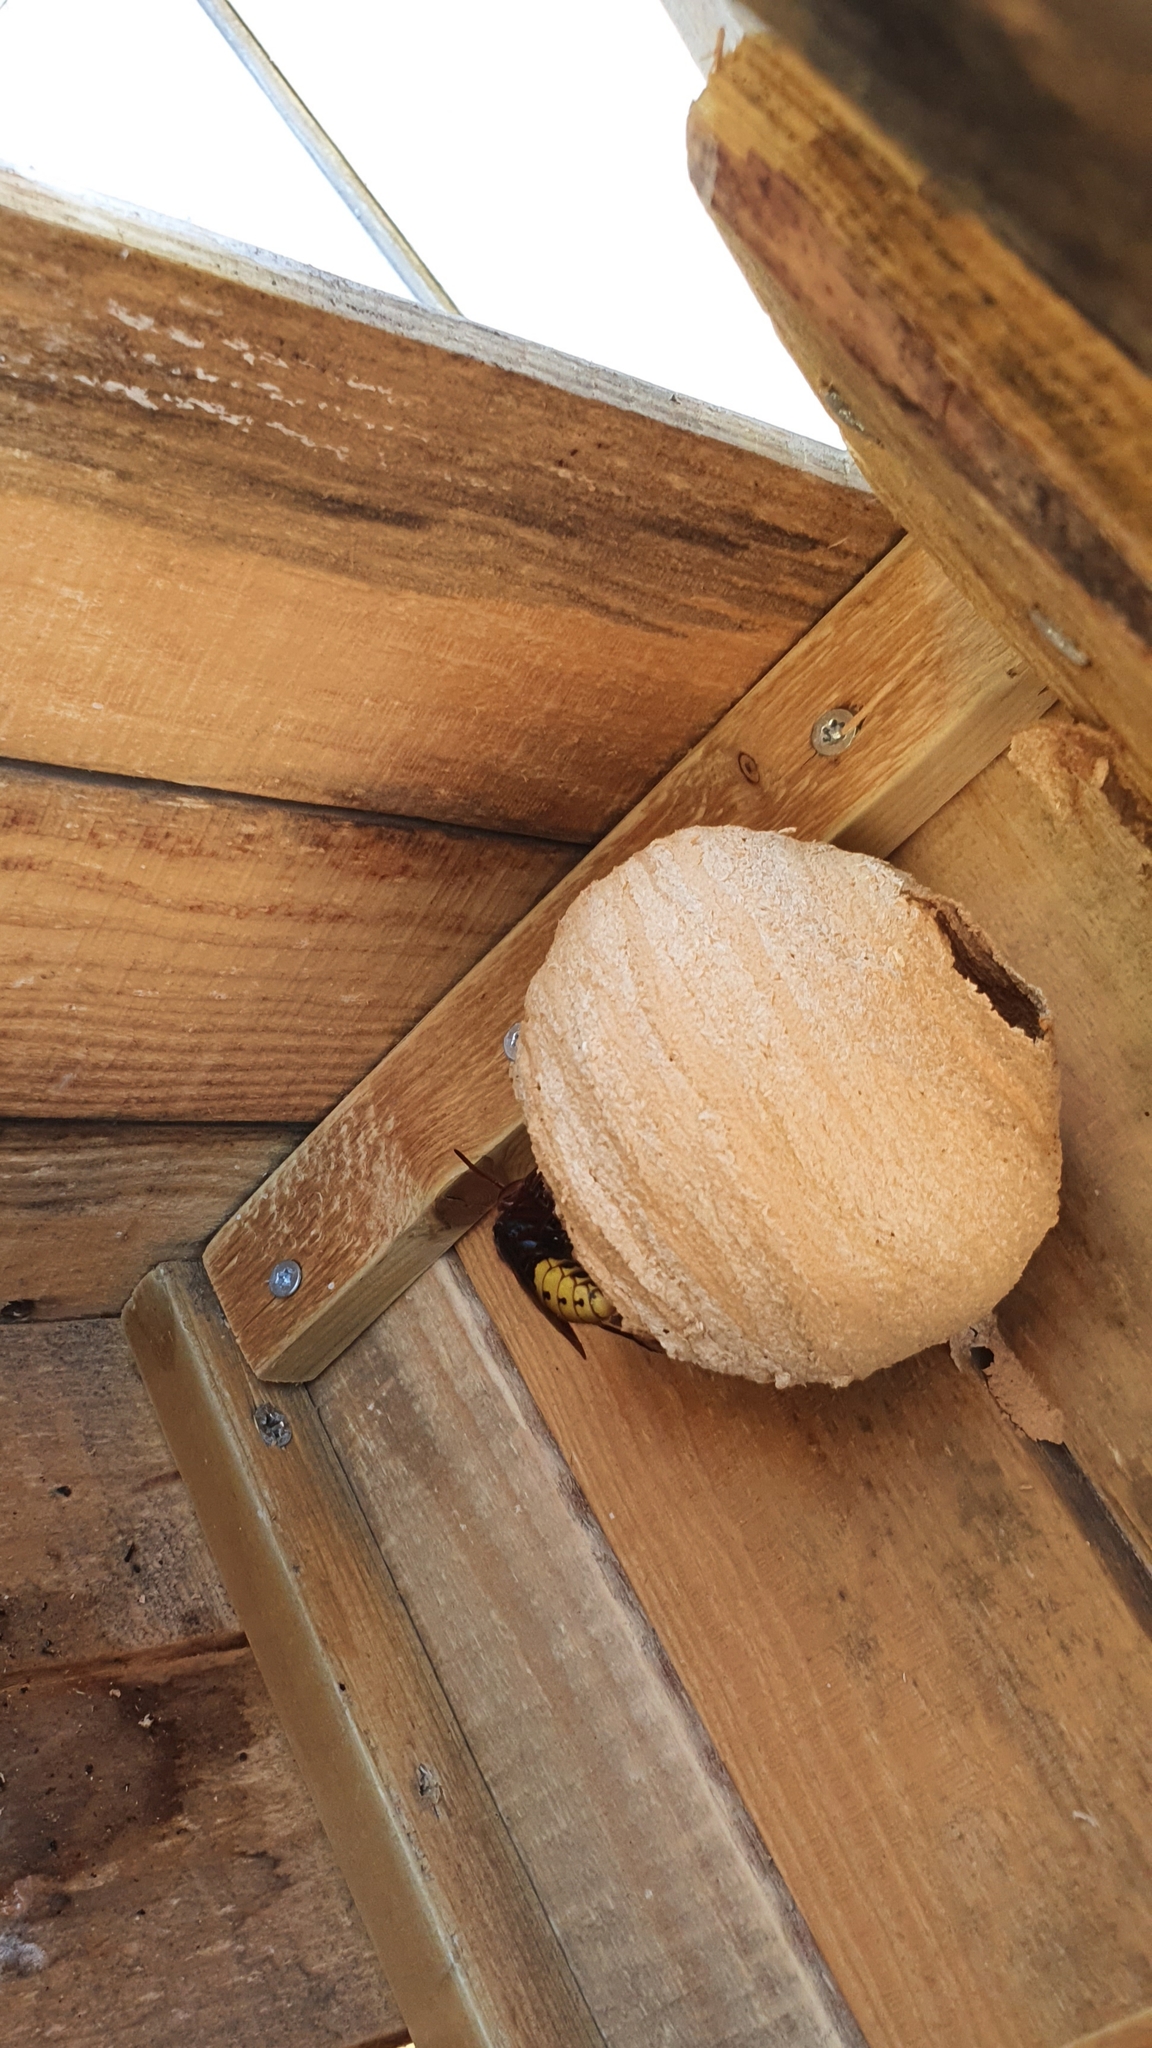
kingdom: Animalia
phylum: Arthropoda
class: Insecta
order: Hymenoptera
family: Vespidae
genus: Vespa
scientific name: Vespa crabro
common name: Hornet
